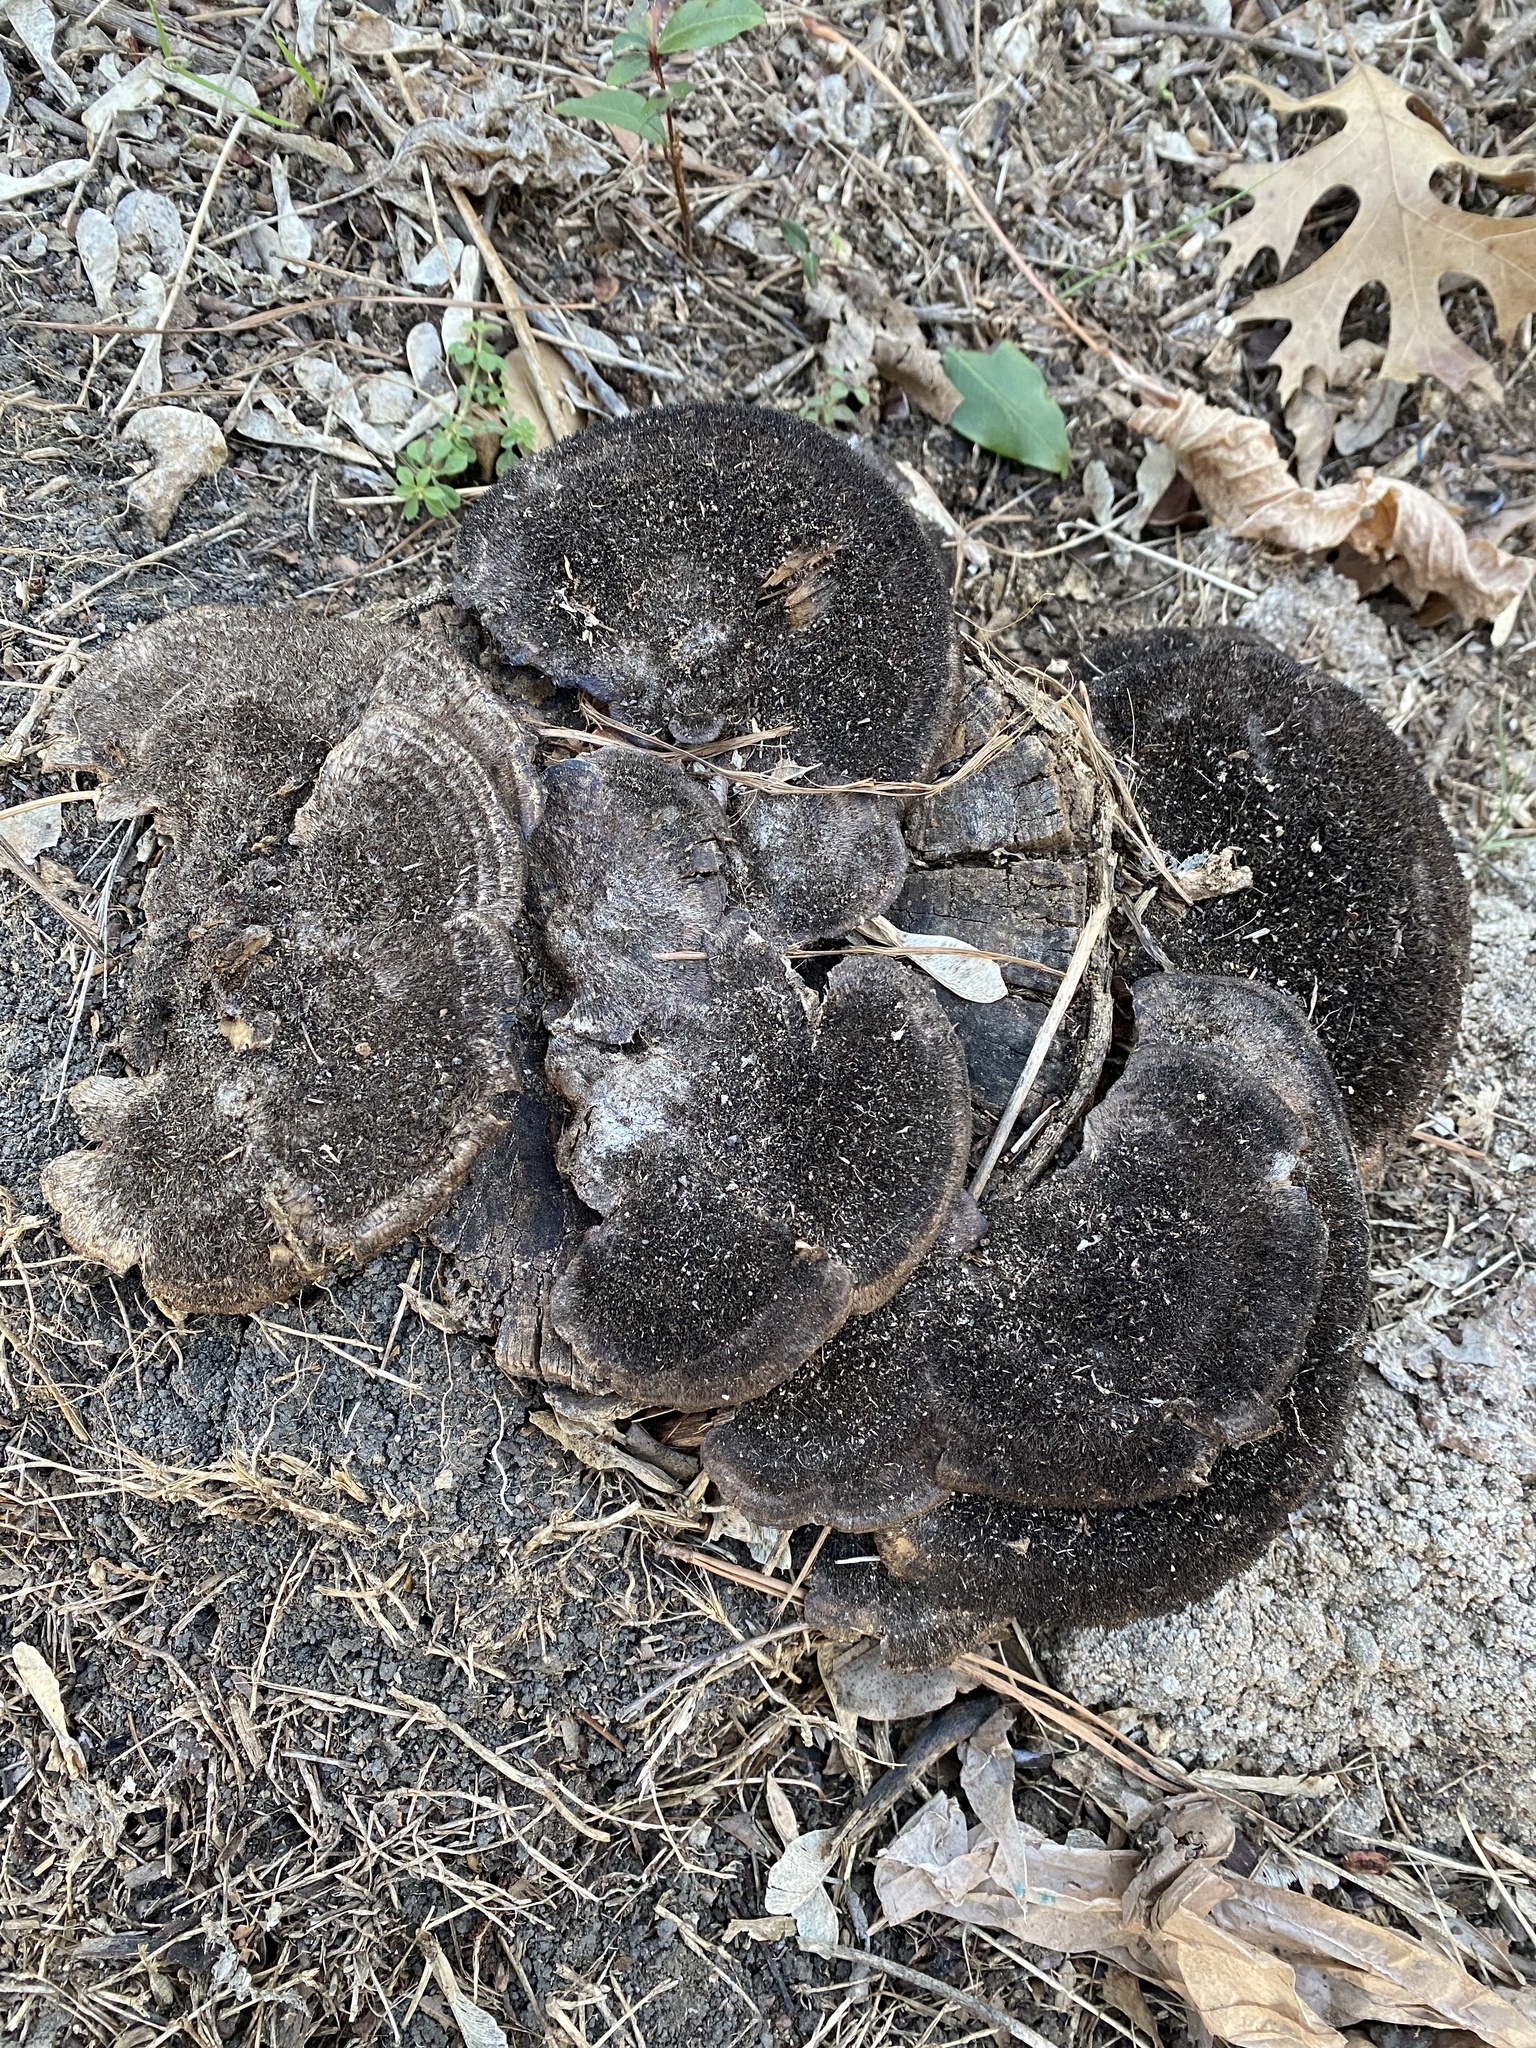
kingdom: Fungi
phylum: Basidiomycota
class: Agaricomycetes
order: Polyporales
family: Cerrenaceae
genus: Cerrena
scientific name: Cerrena hydnoides
